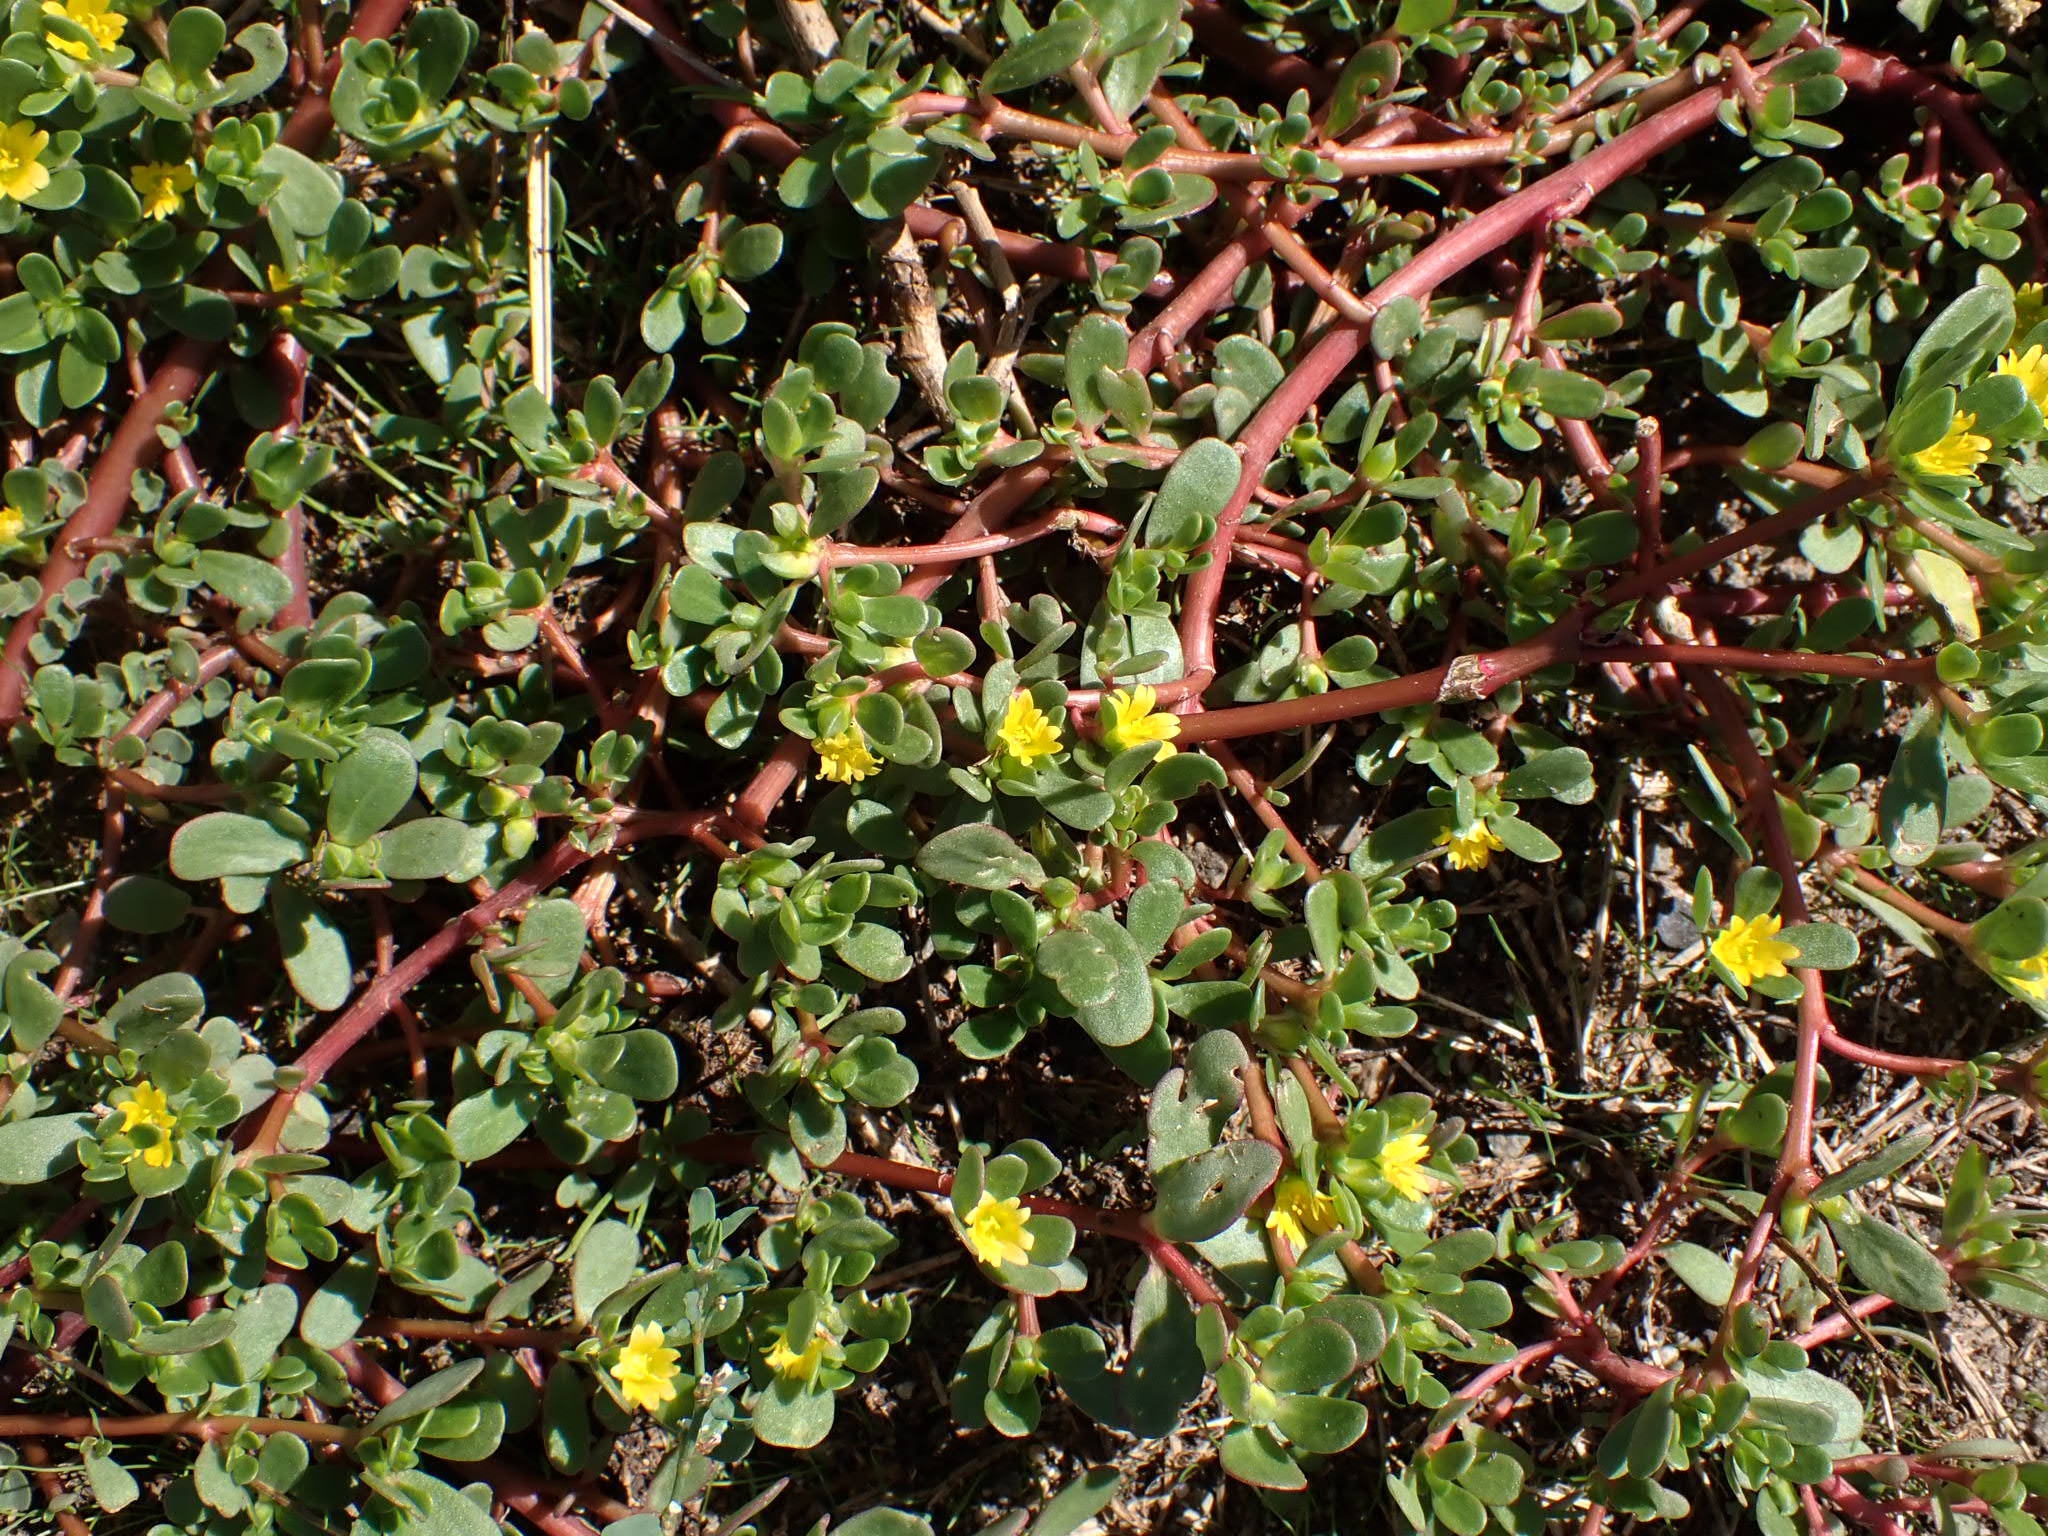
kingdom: Plantae
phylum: Tracheophyta
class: Magnoliopsida
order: Caryophyllales
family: Portulacaceae
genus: Portulaca
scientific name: Portulaca oleracea
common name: Common purslane
